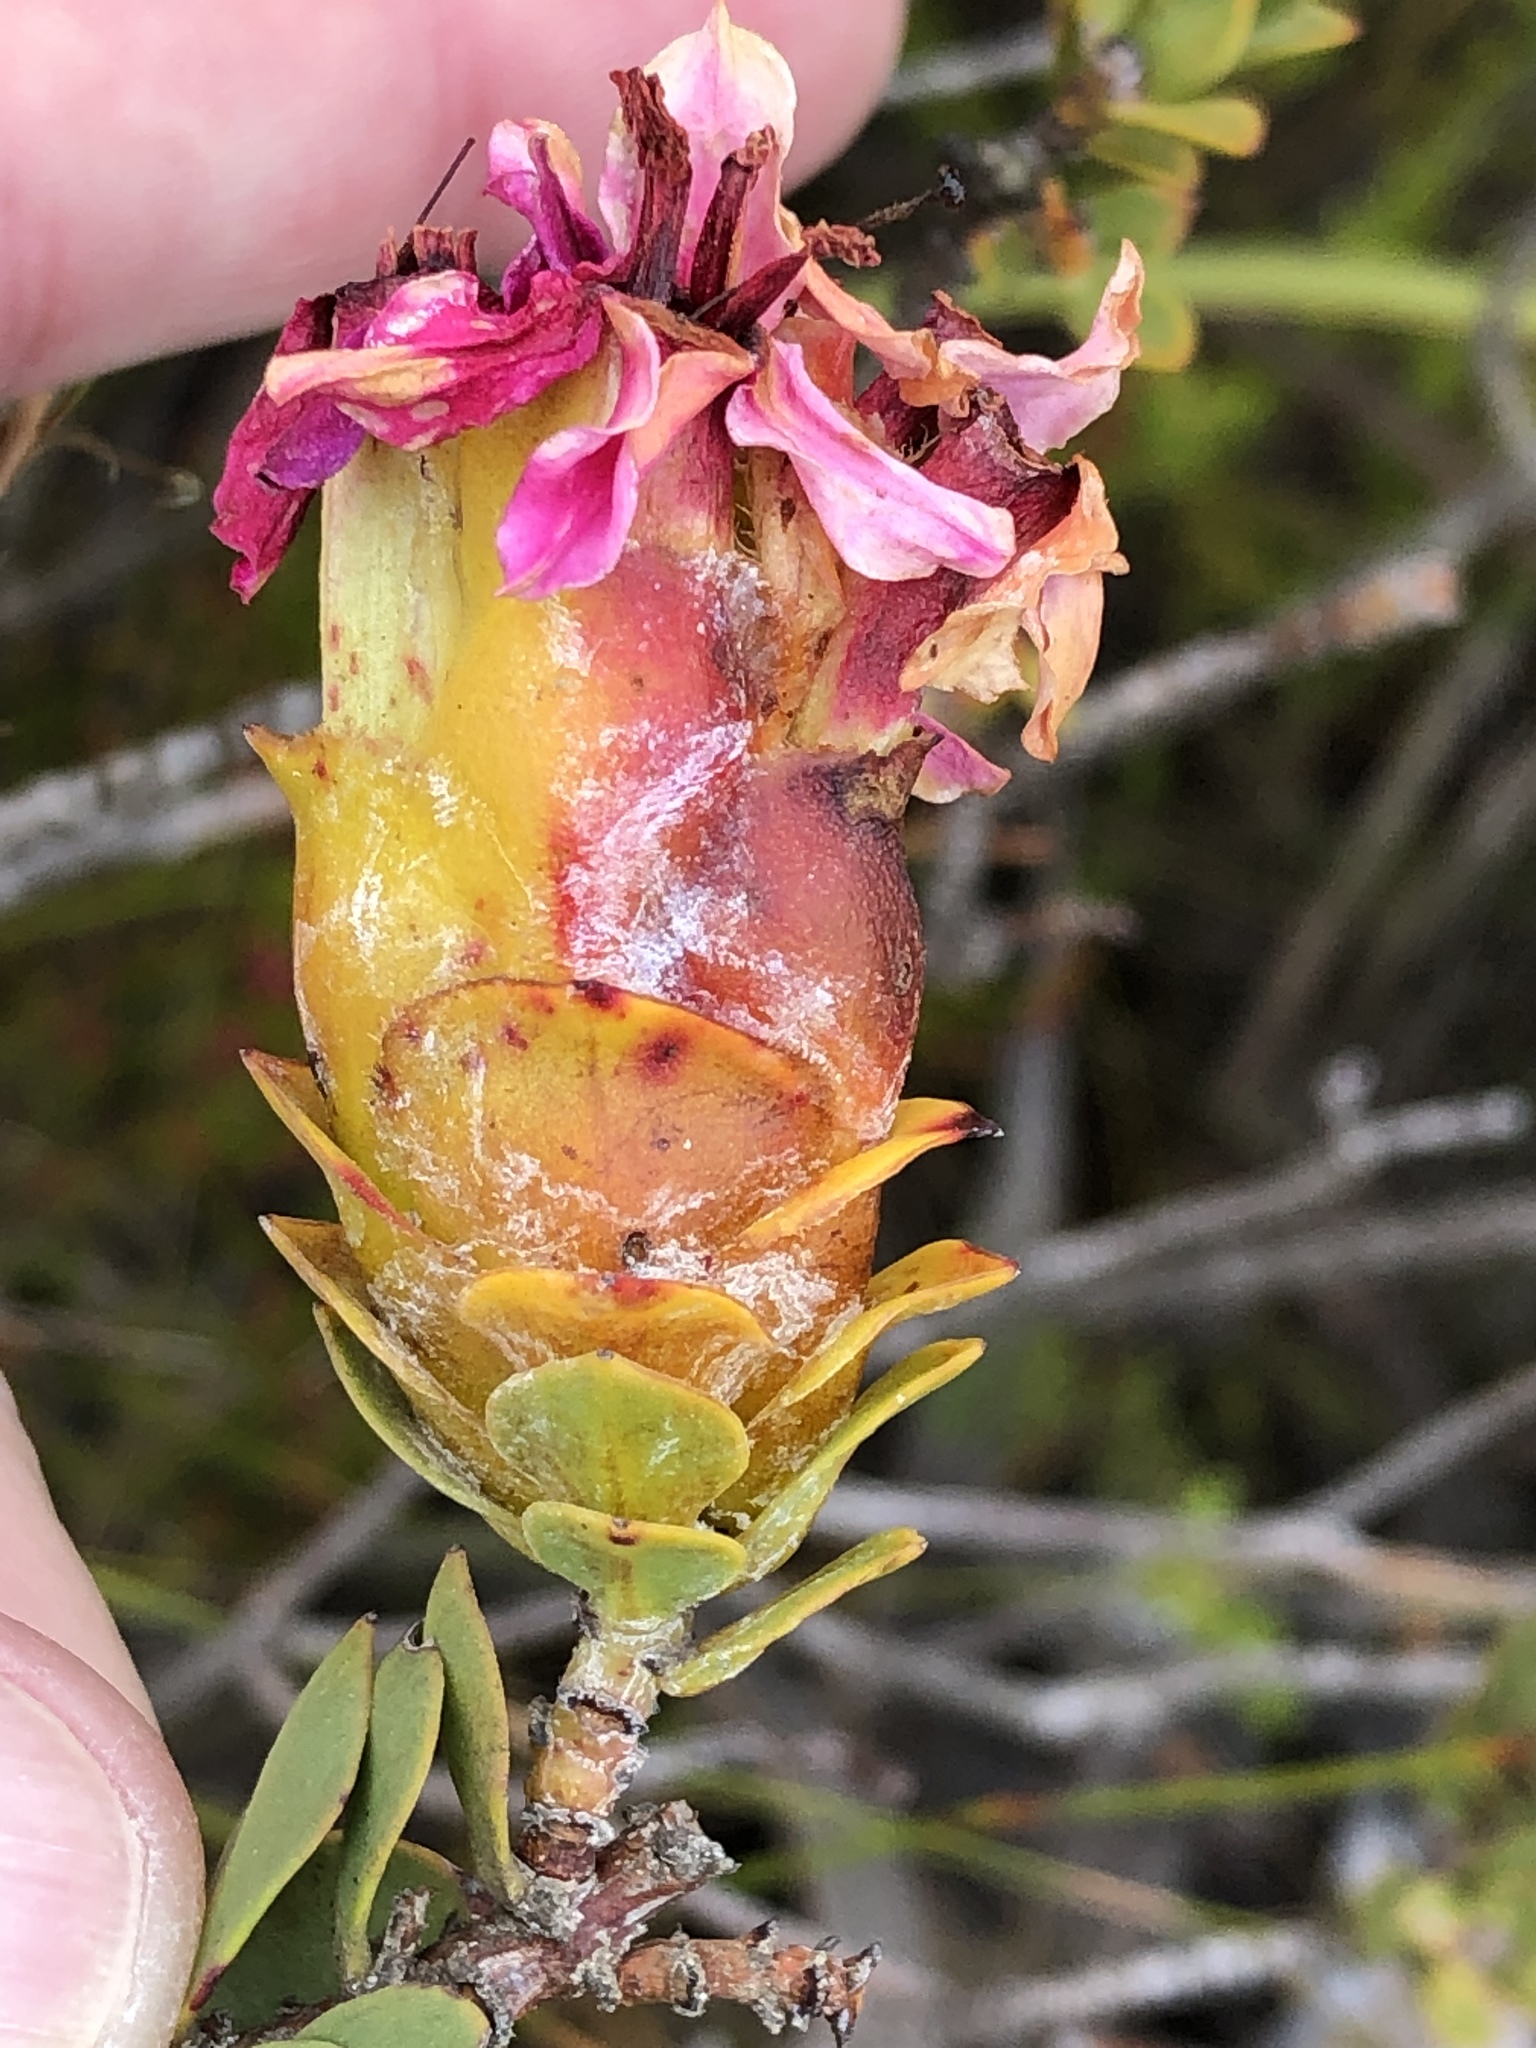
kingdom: Plantae
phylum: Tracheophyta
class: Magnoliopsida
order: Myrtales
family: Penaeaceae
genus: Saltera
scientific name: Saltera sarcocolla
